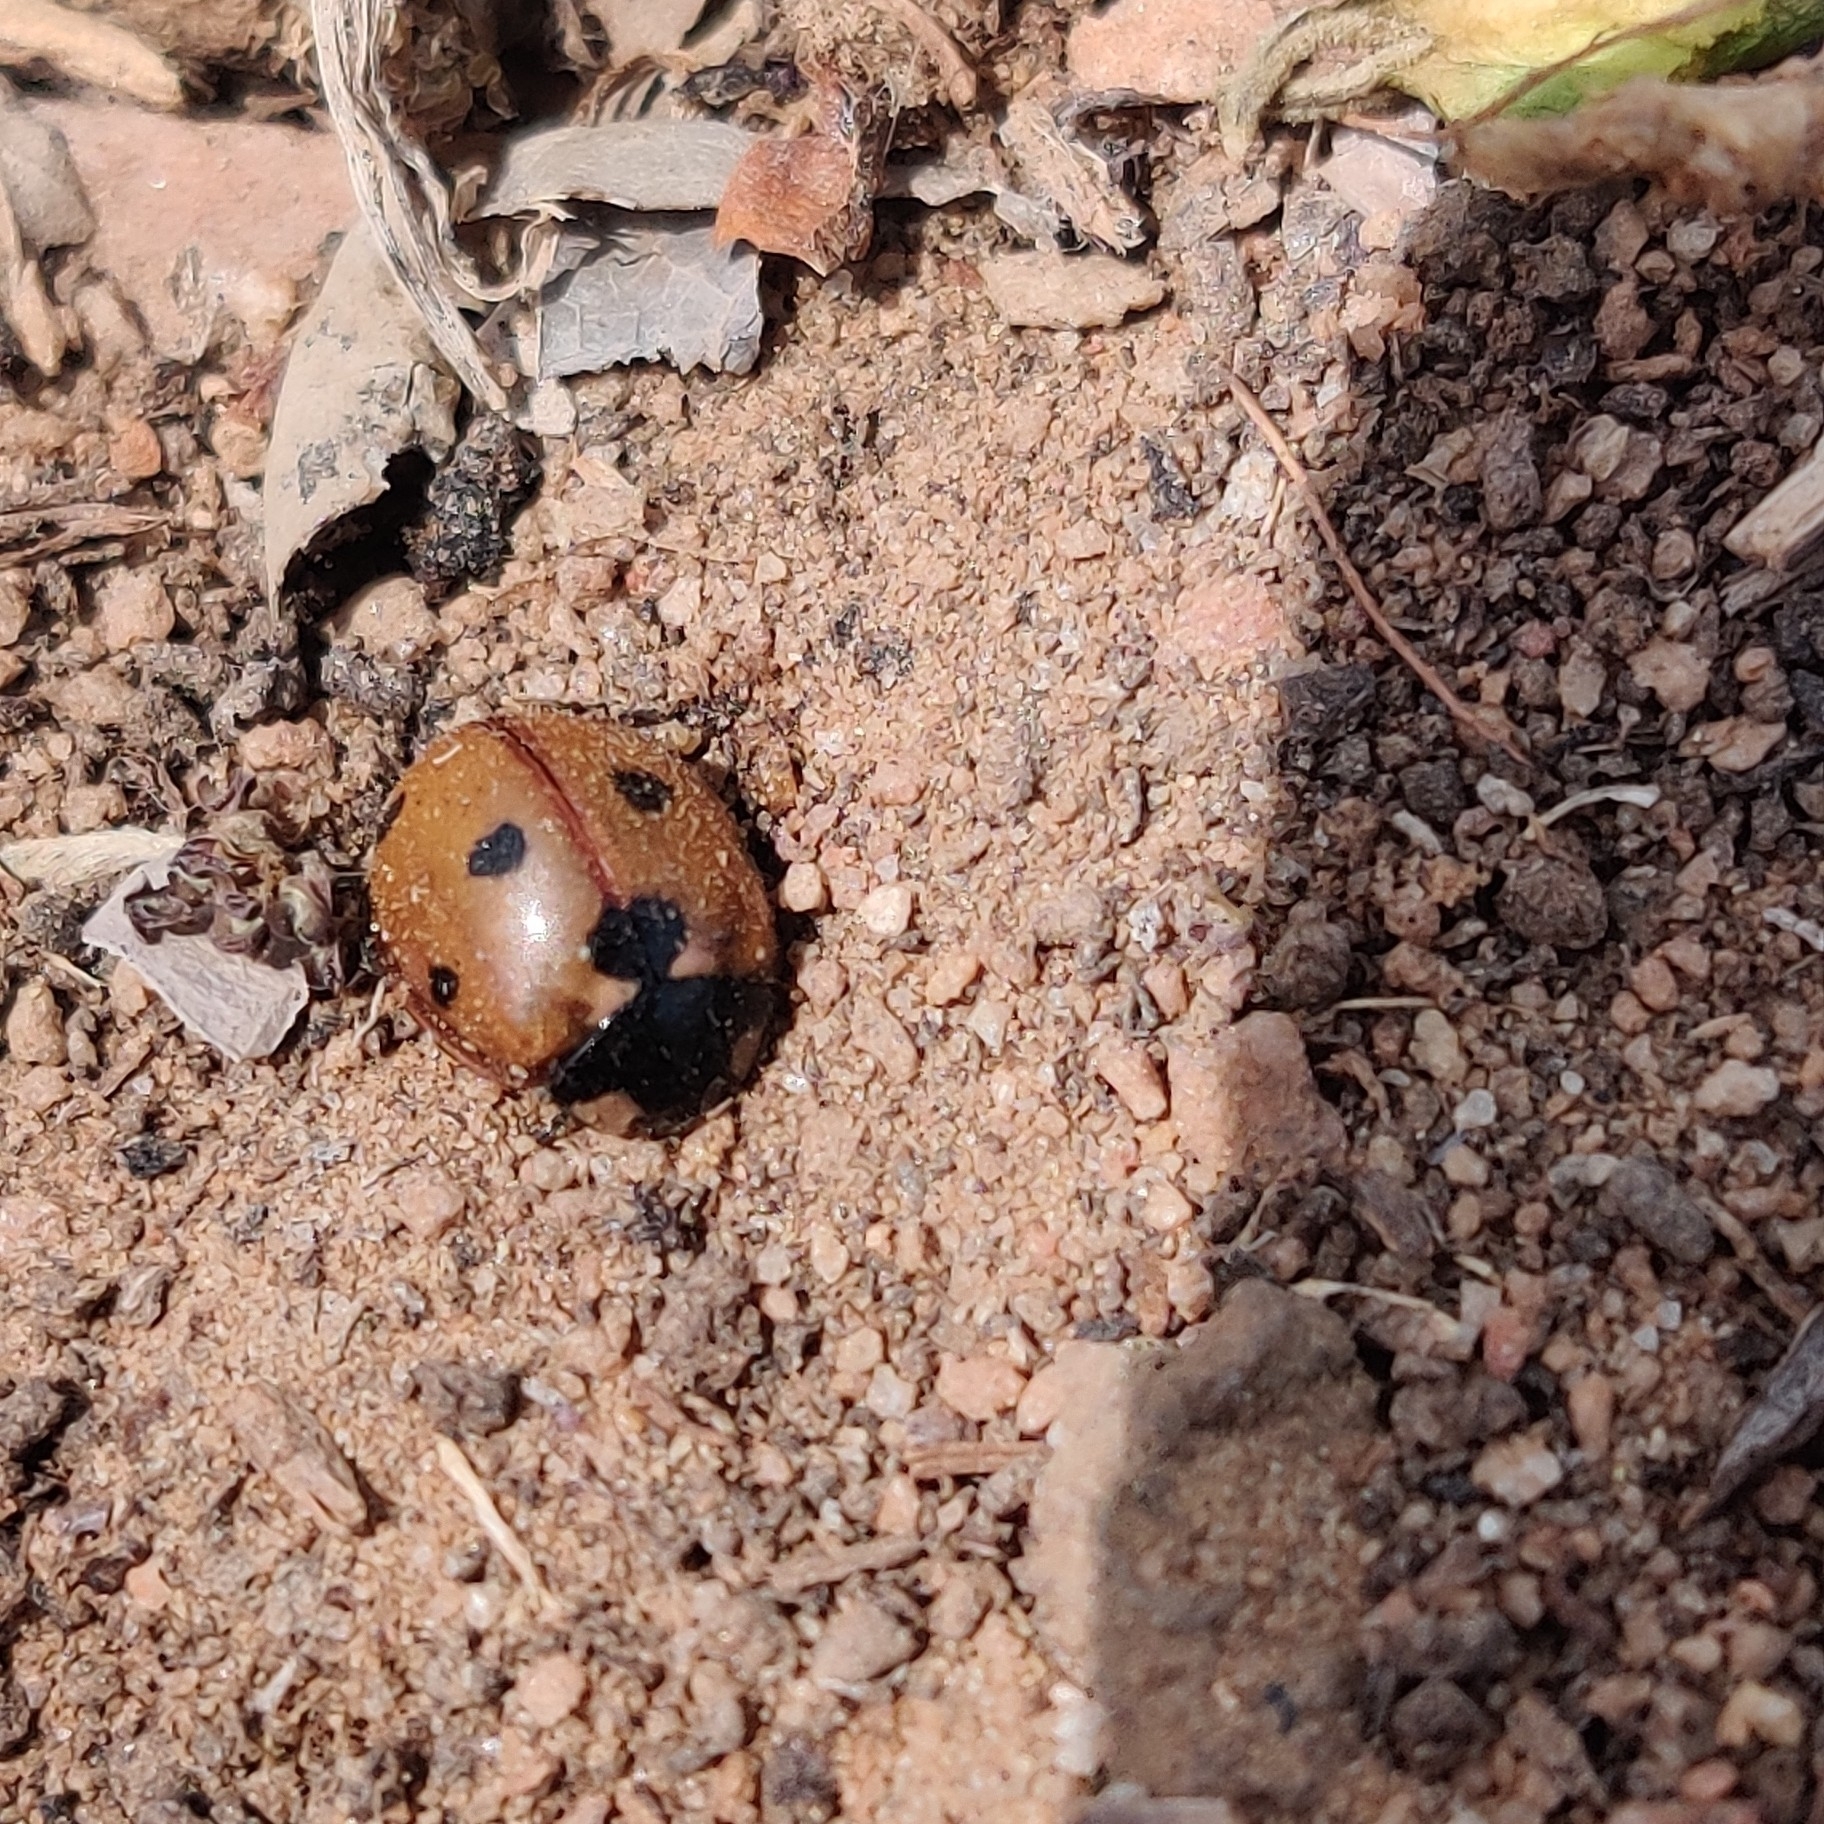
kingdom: Animalia
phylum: Arthropoda
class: Insecta
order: Coleoptera
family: Coccinellidae
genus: Coccinella
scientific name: Coccinella septempunctata
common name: Sevenspotted lady beetle
